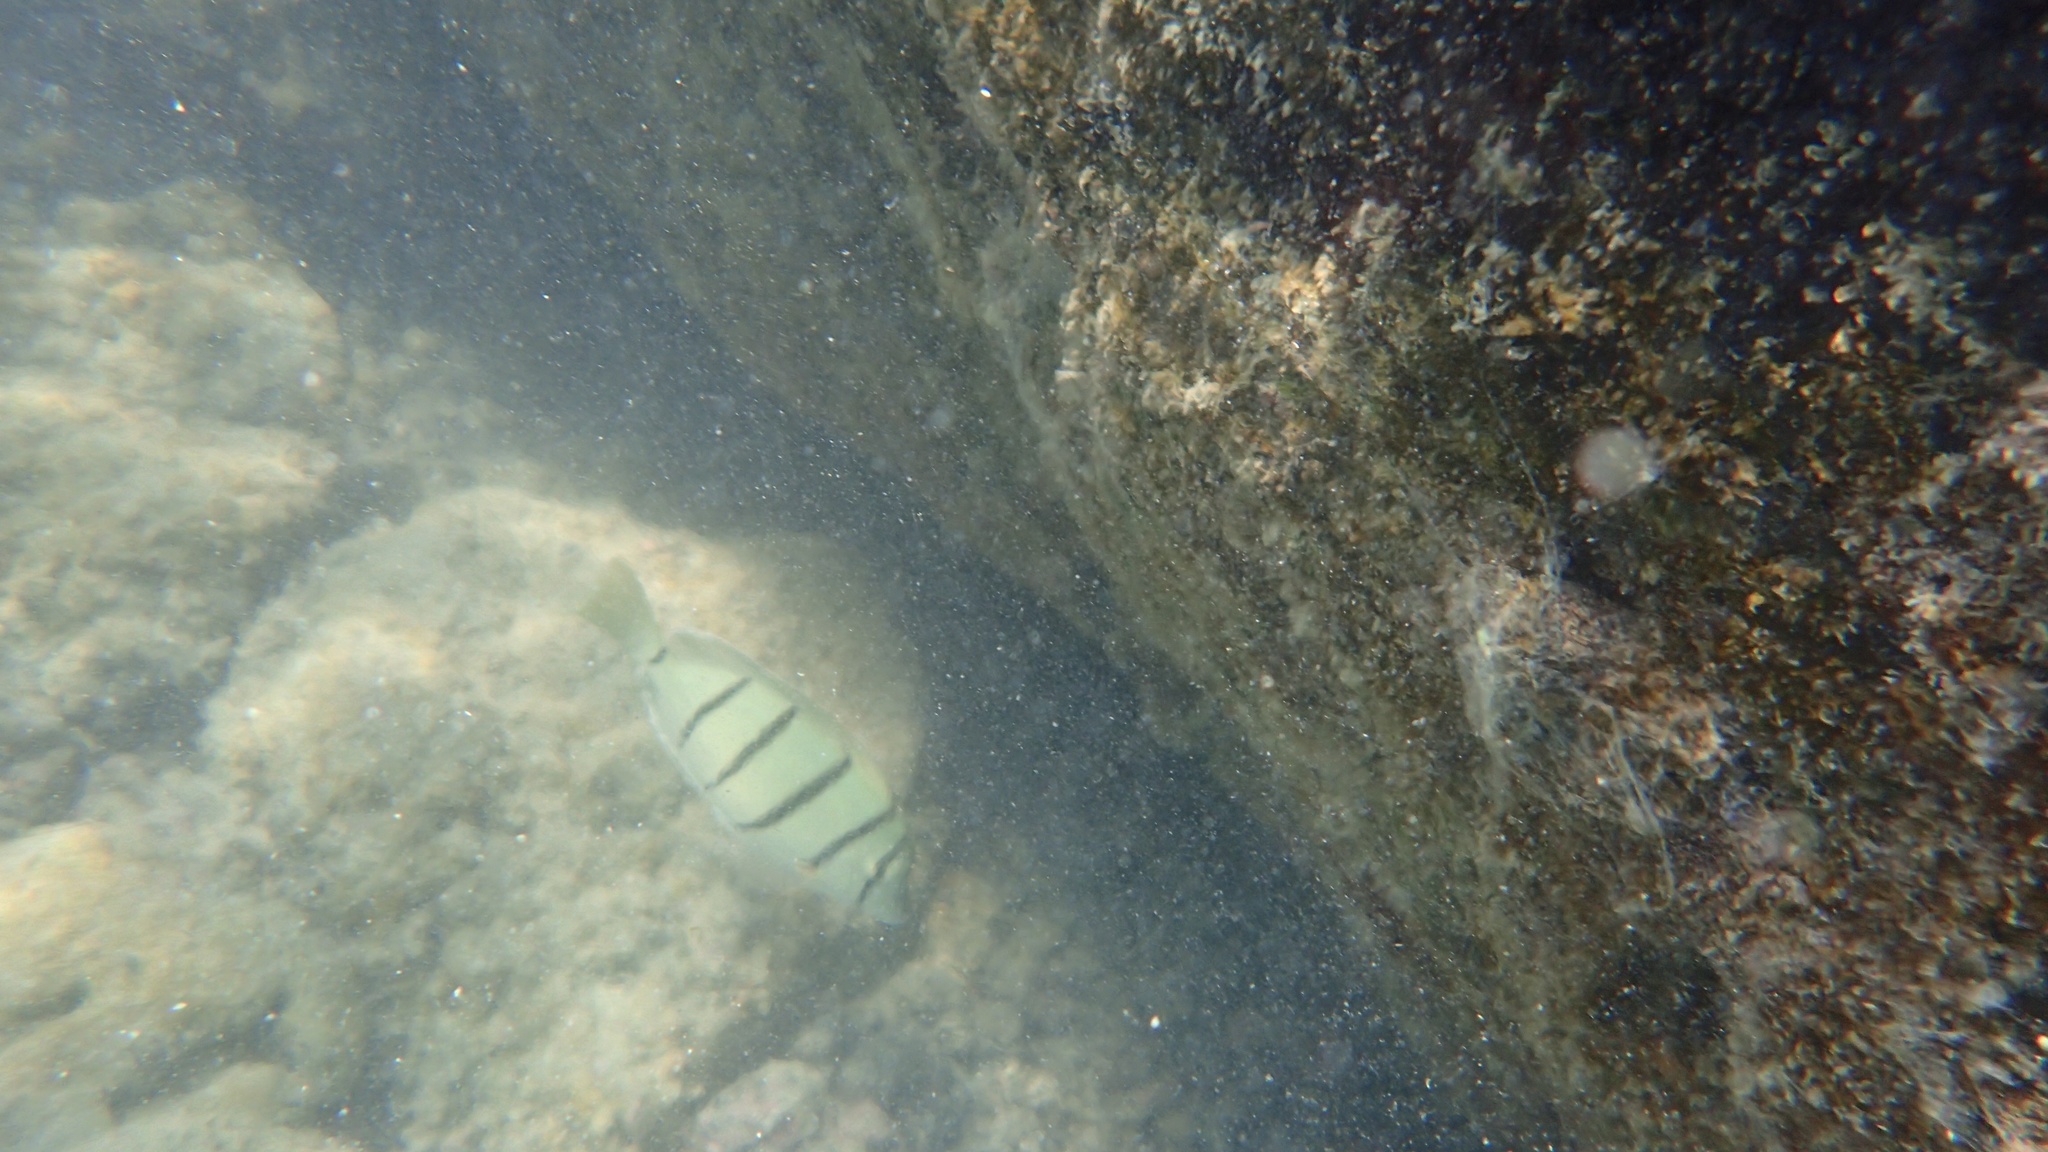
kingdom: Animalia
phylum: Chordata
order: Perciformes
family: Acanthuridae
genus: Acanthurus
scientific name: Acanthurus triostegus
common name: Convict surgeonfish
